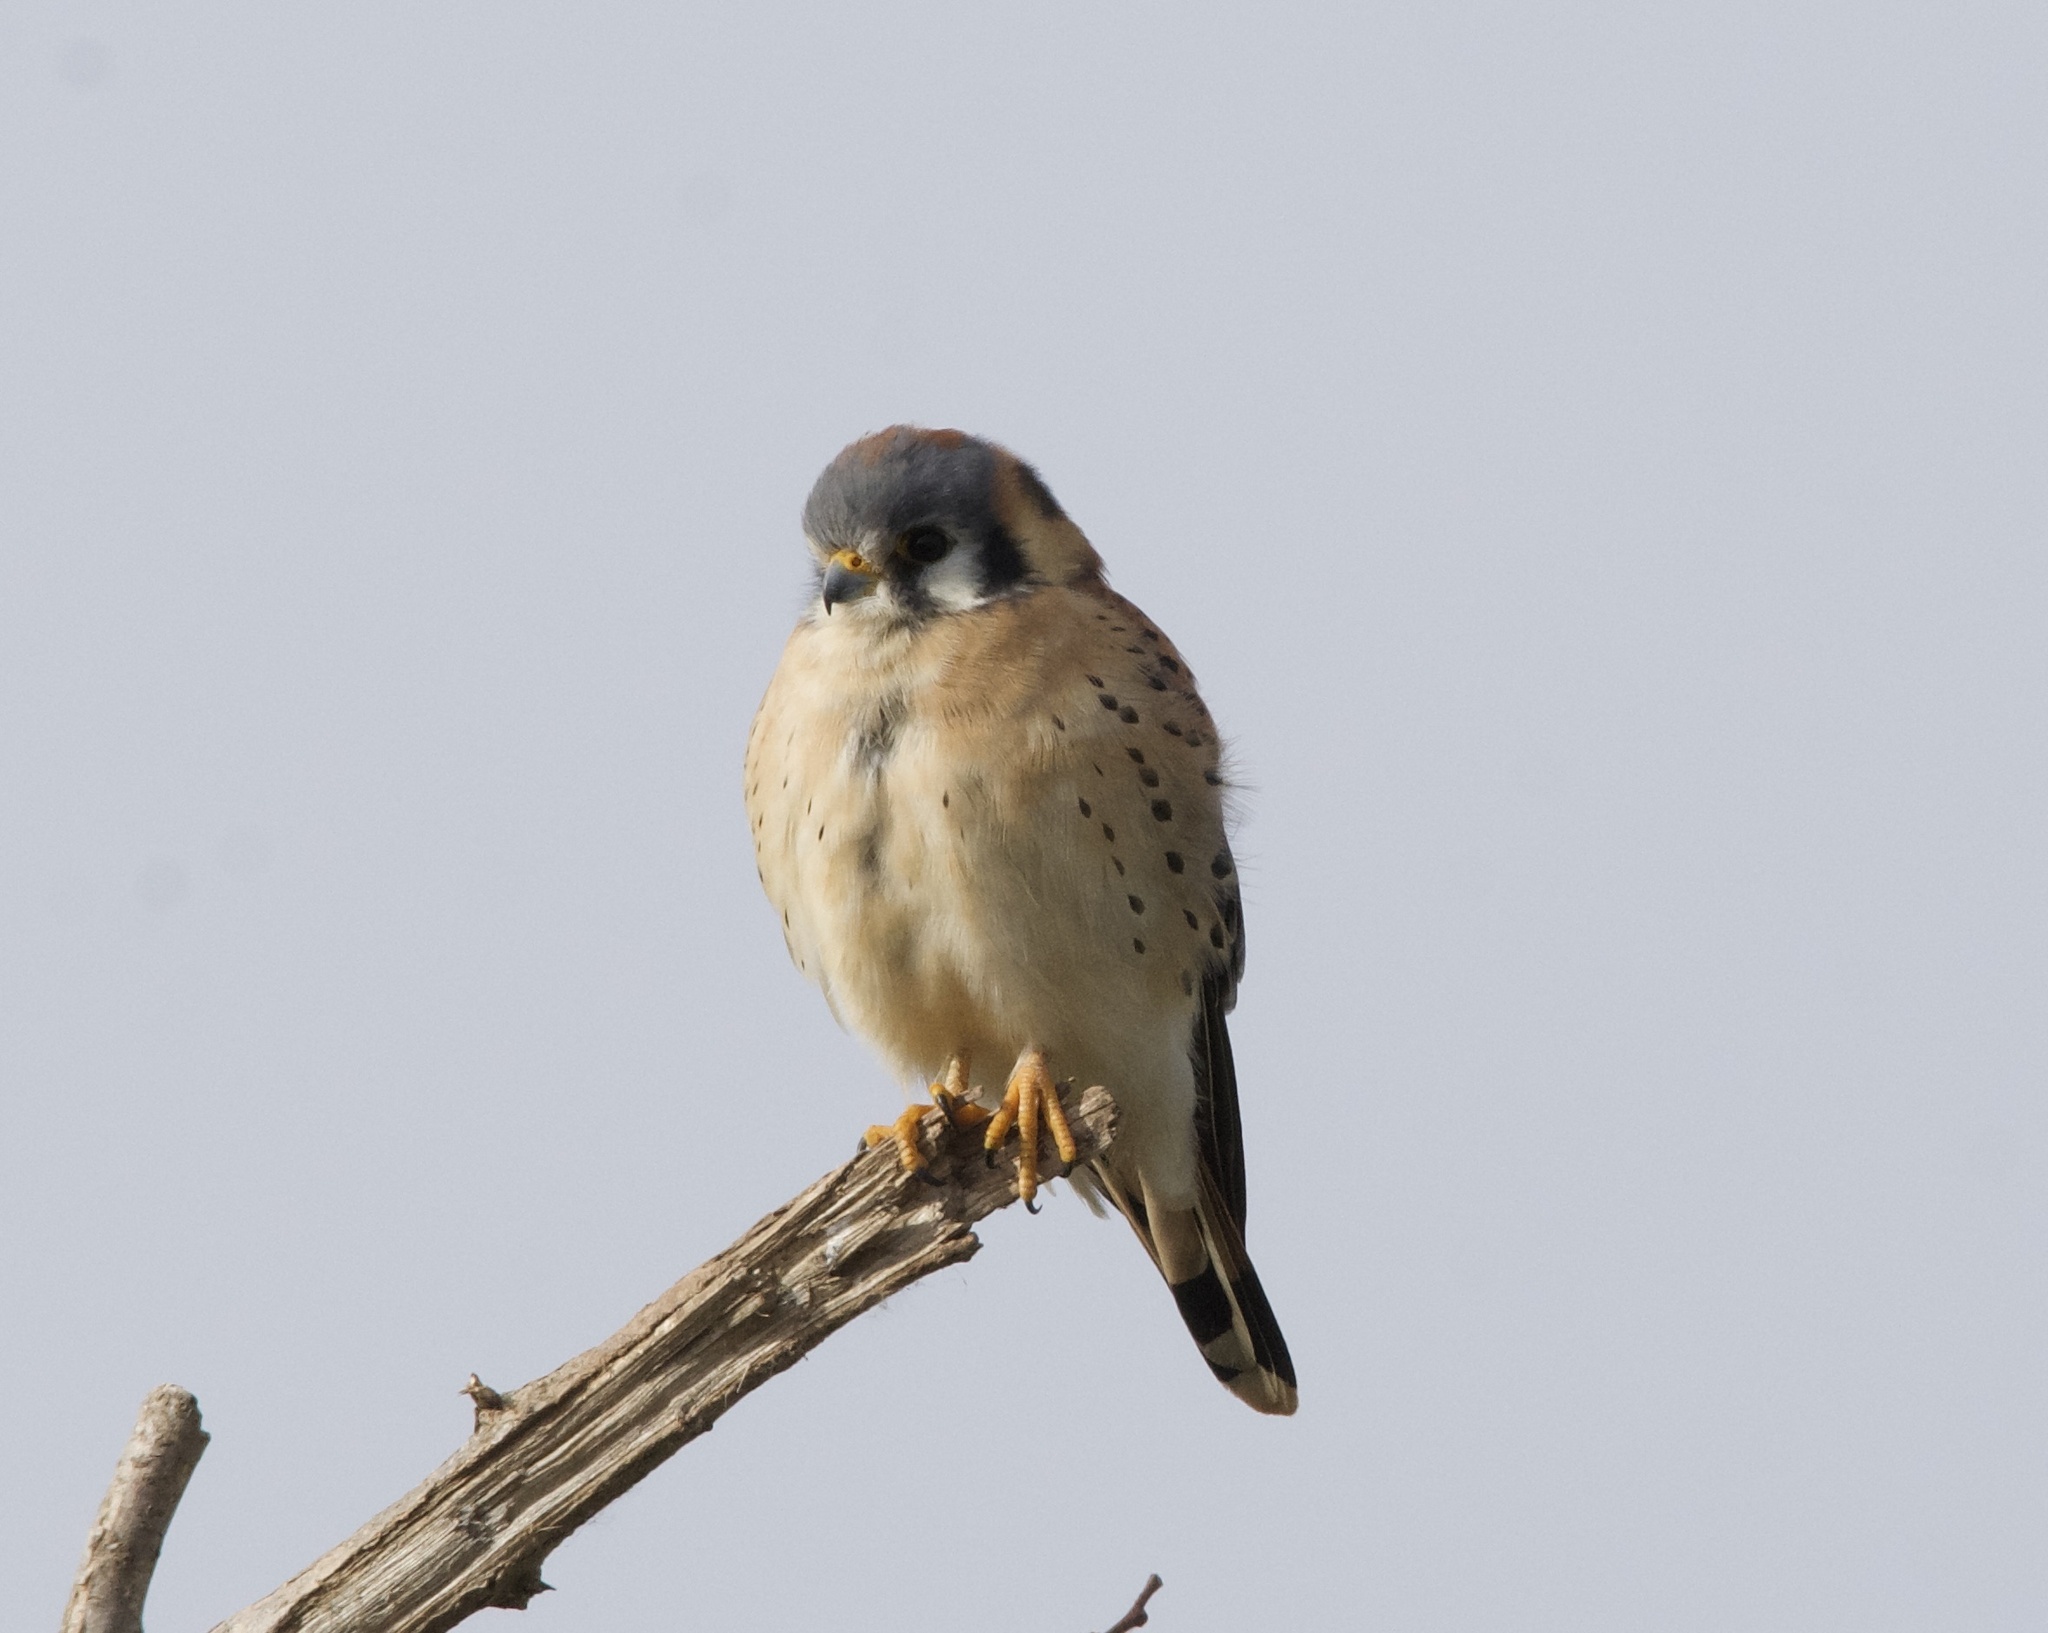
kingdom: Animalia
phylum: Chordata
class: Aves
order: Falconiformes
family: Falconidae
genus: Falco
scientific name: Falco sparverius
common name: American kestrel
